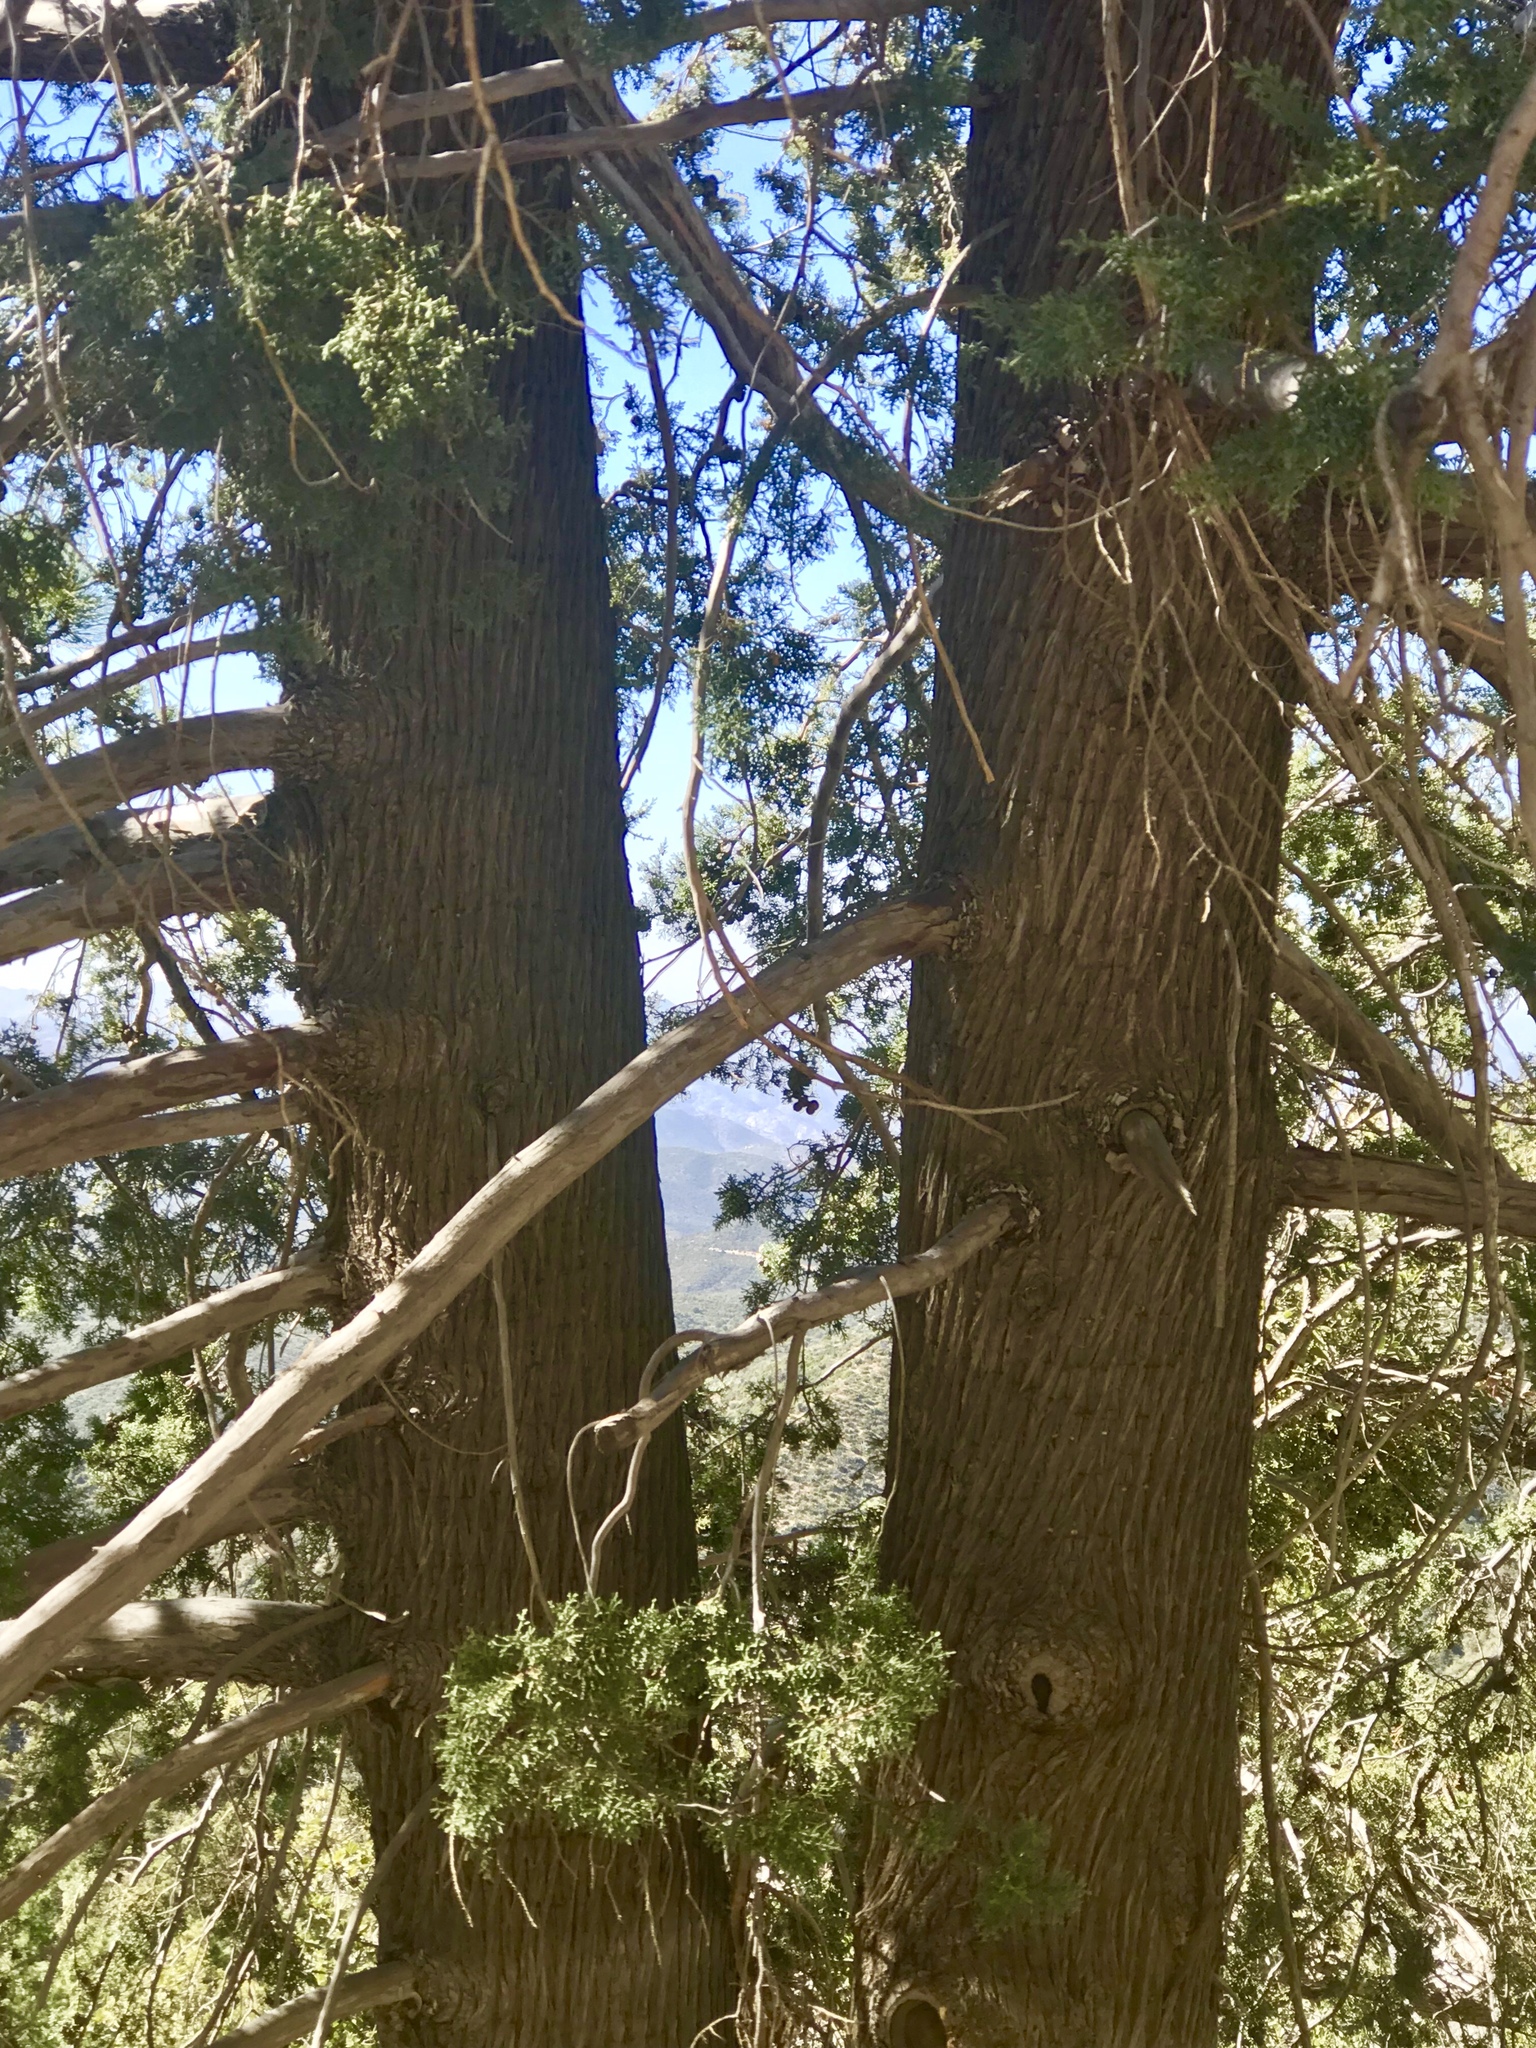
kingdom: Plantae
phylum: Tracheophyta
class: Pinopsida
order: Pinales
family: Cupressaceae
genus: Cupressus
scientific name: Cupressus arizonica
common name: Arizona cypress
